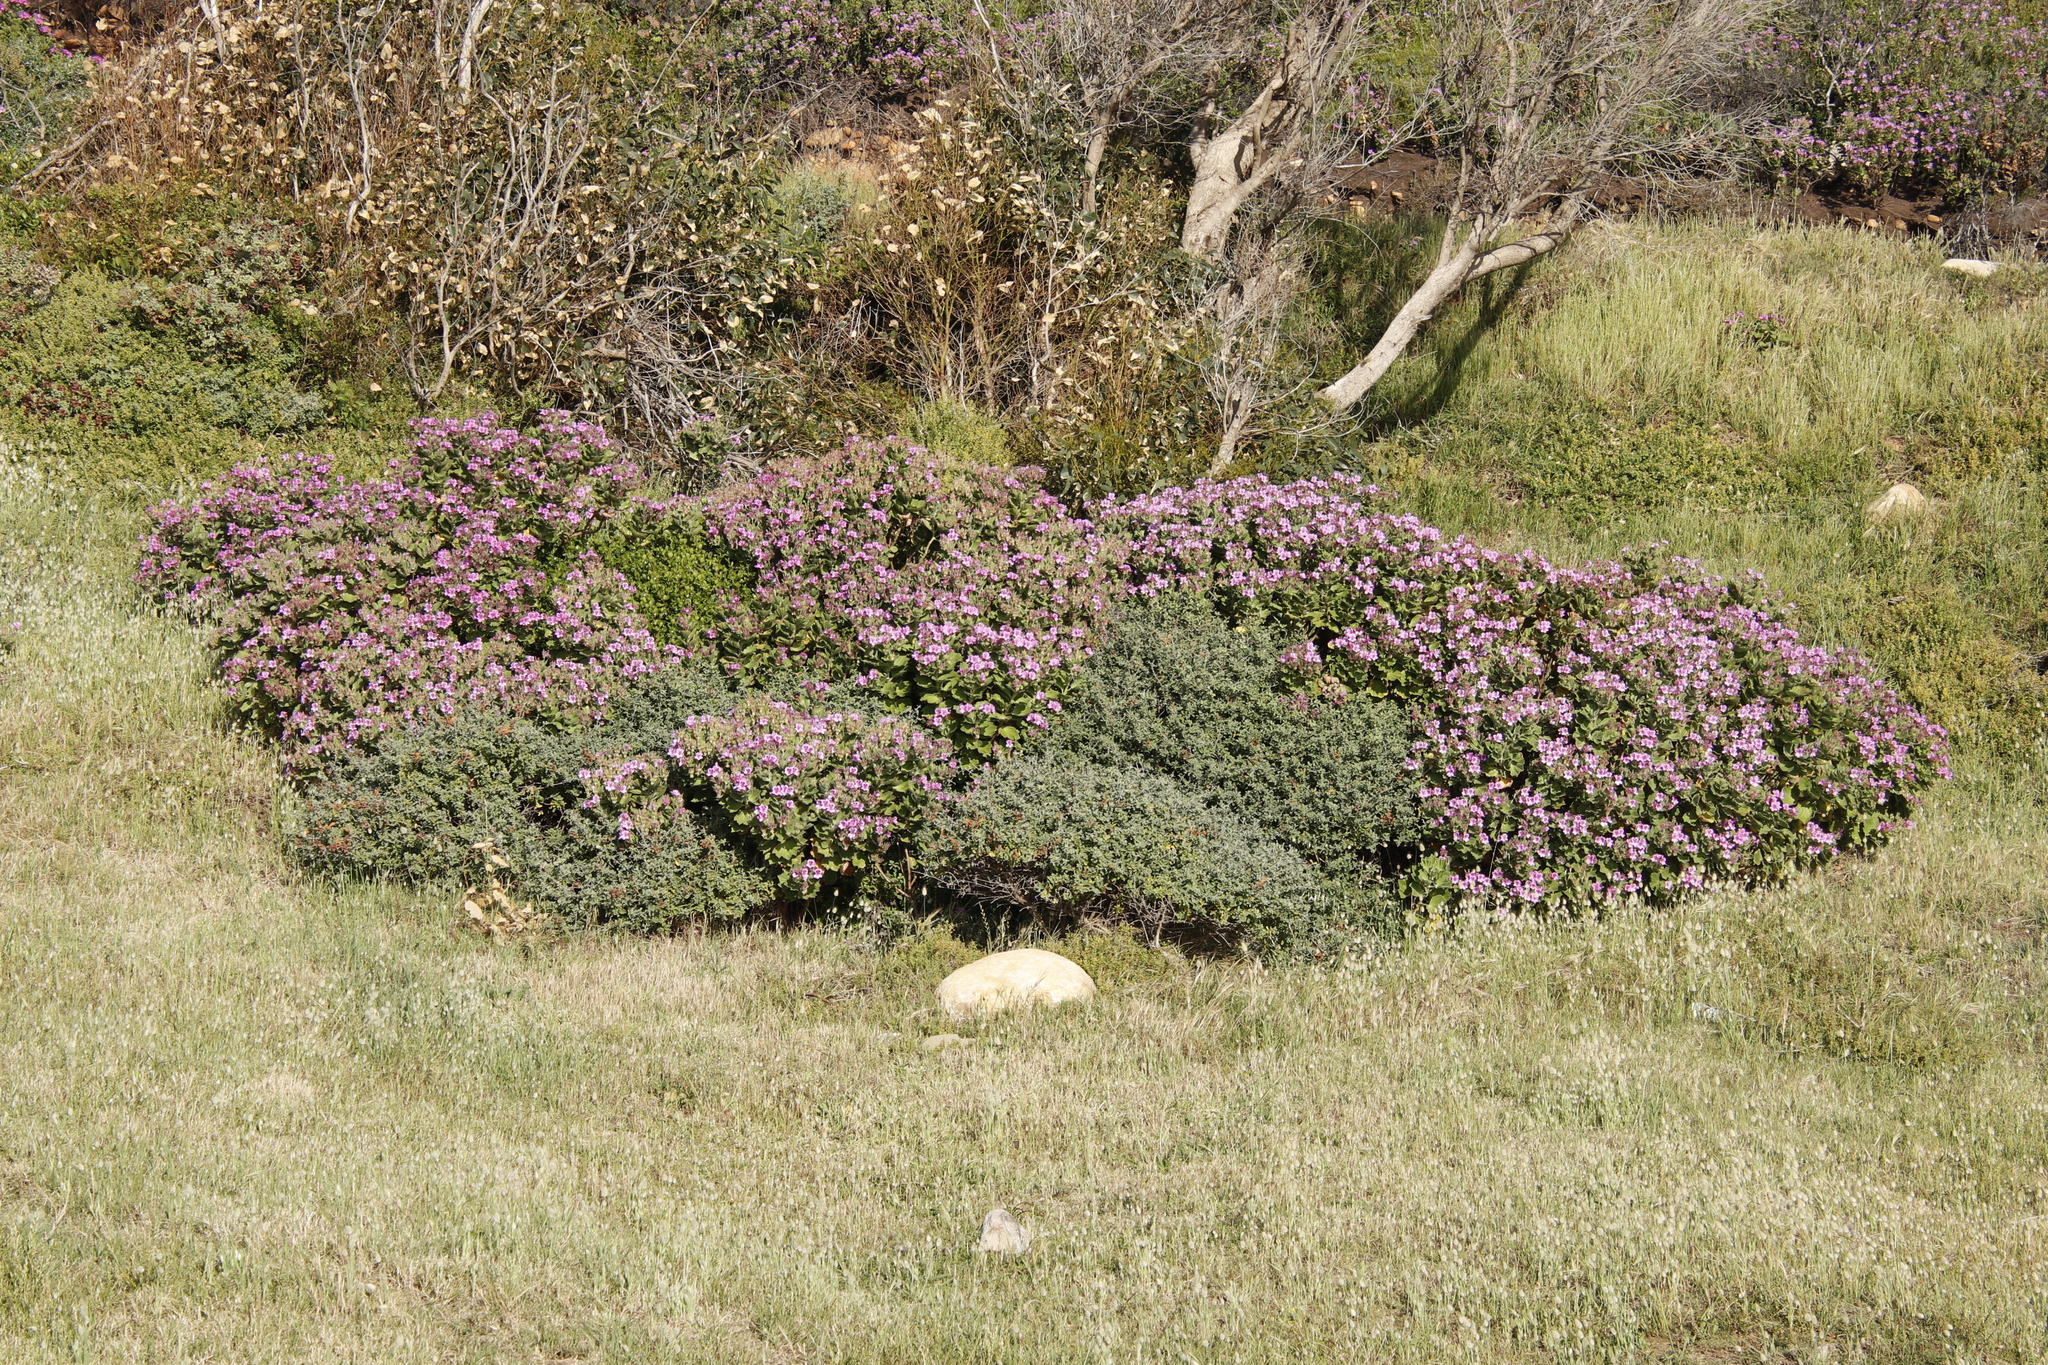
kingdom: Plantae
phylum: Tracheophyta
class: Magnoliopsida
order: Geraniales
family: Geraniaceae
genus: Pelargonium
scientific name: Pelargonium cucullatum
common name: Tree pelargonium
